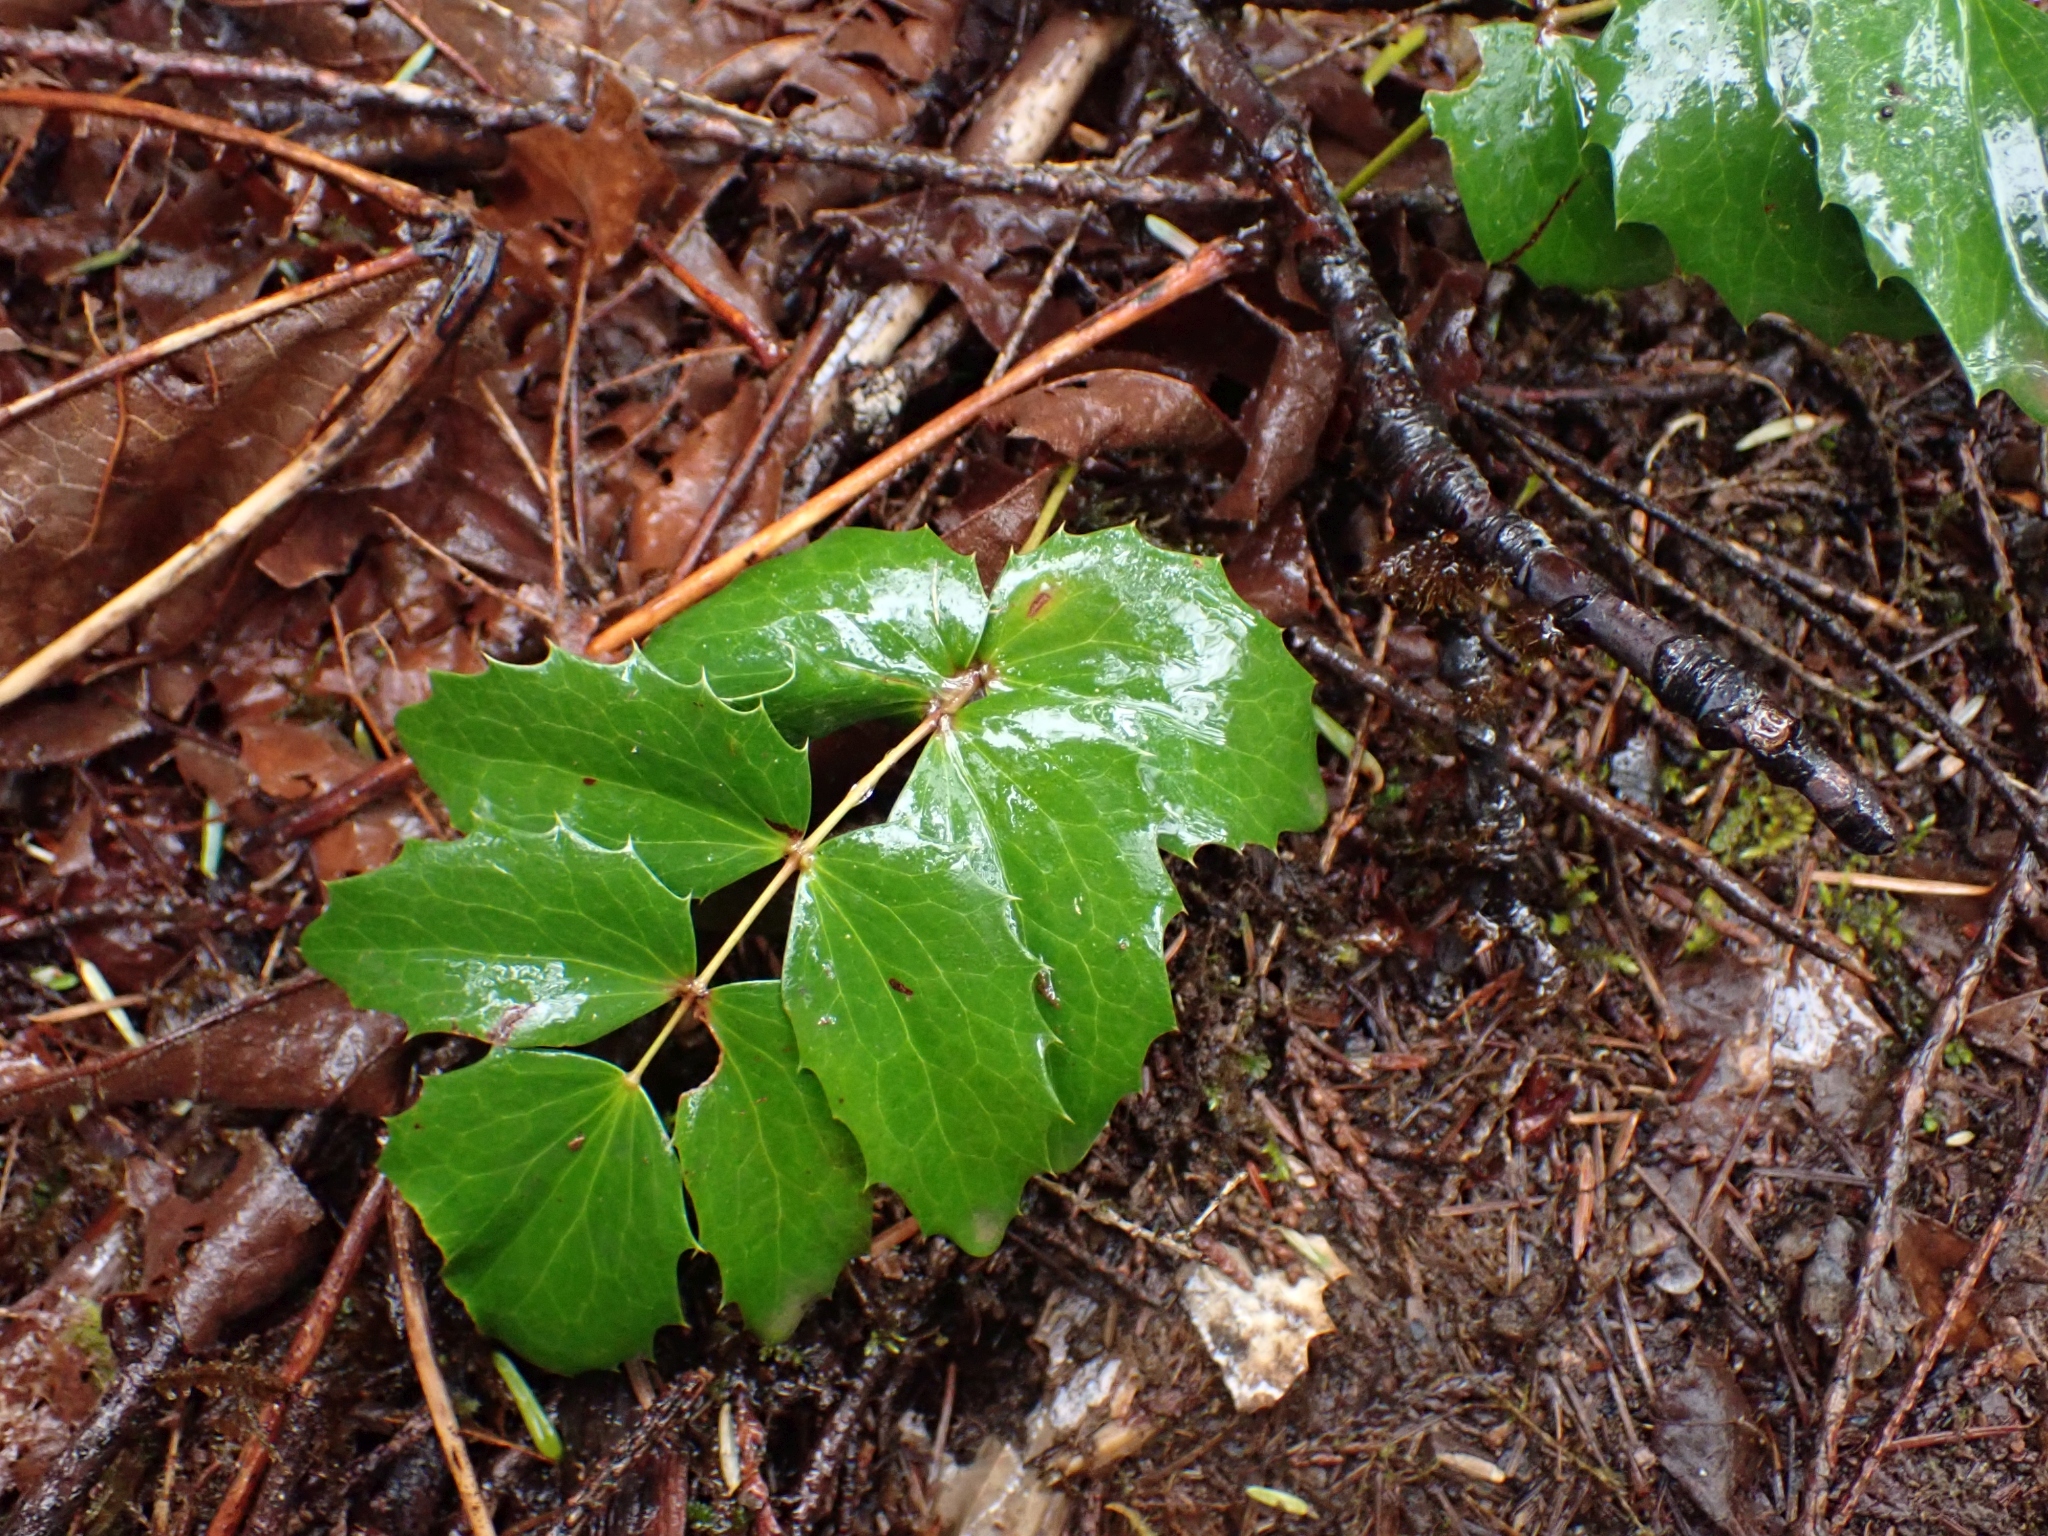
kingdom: Plantae
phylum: Tracheophyta
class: Magnoliopsida
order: Ranunculales
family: Berberidaceae
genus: Mahonia
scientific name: Mahonia nervosa
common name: Cascade oregon-grape
